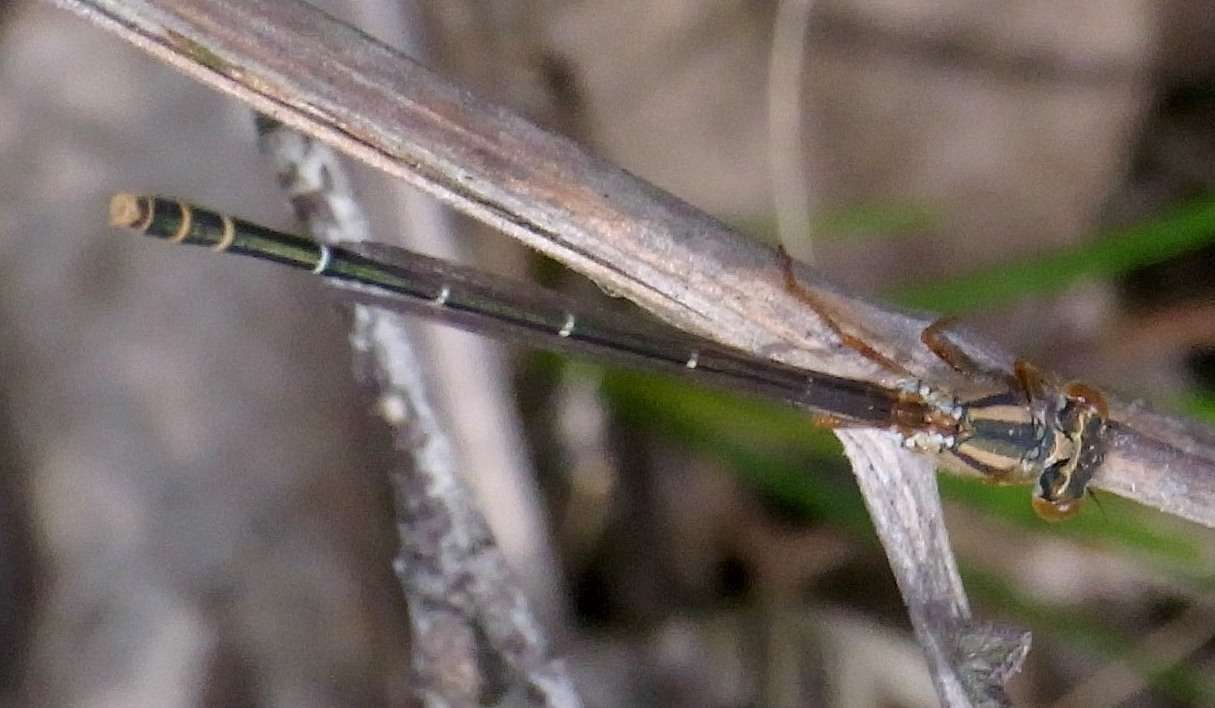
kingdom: Animalia
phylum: Arthropoda
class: Insecta
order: Odonata
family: Coenagrionidae
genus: Xanthagrion
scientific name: Xanthagrion erythroneurum
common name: Red and blue damsel
